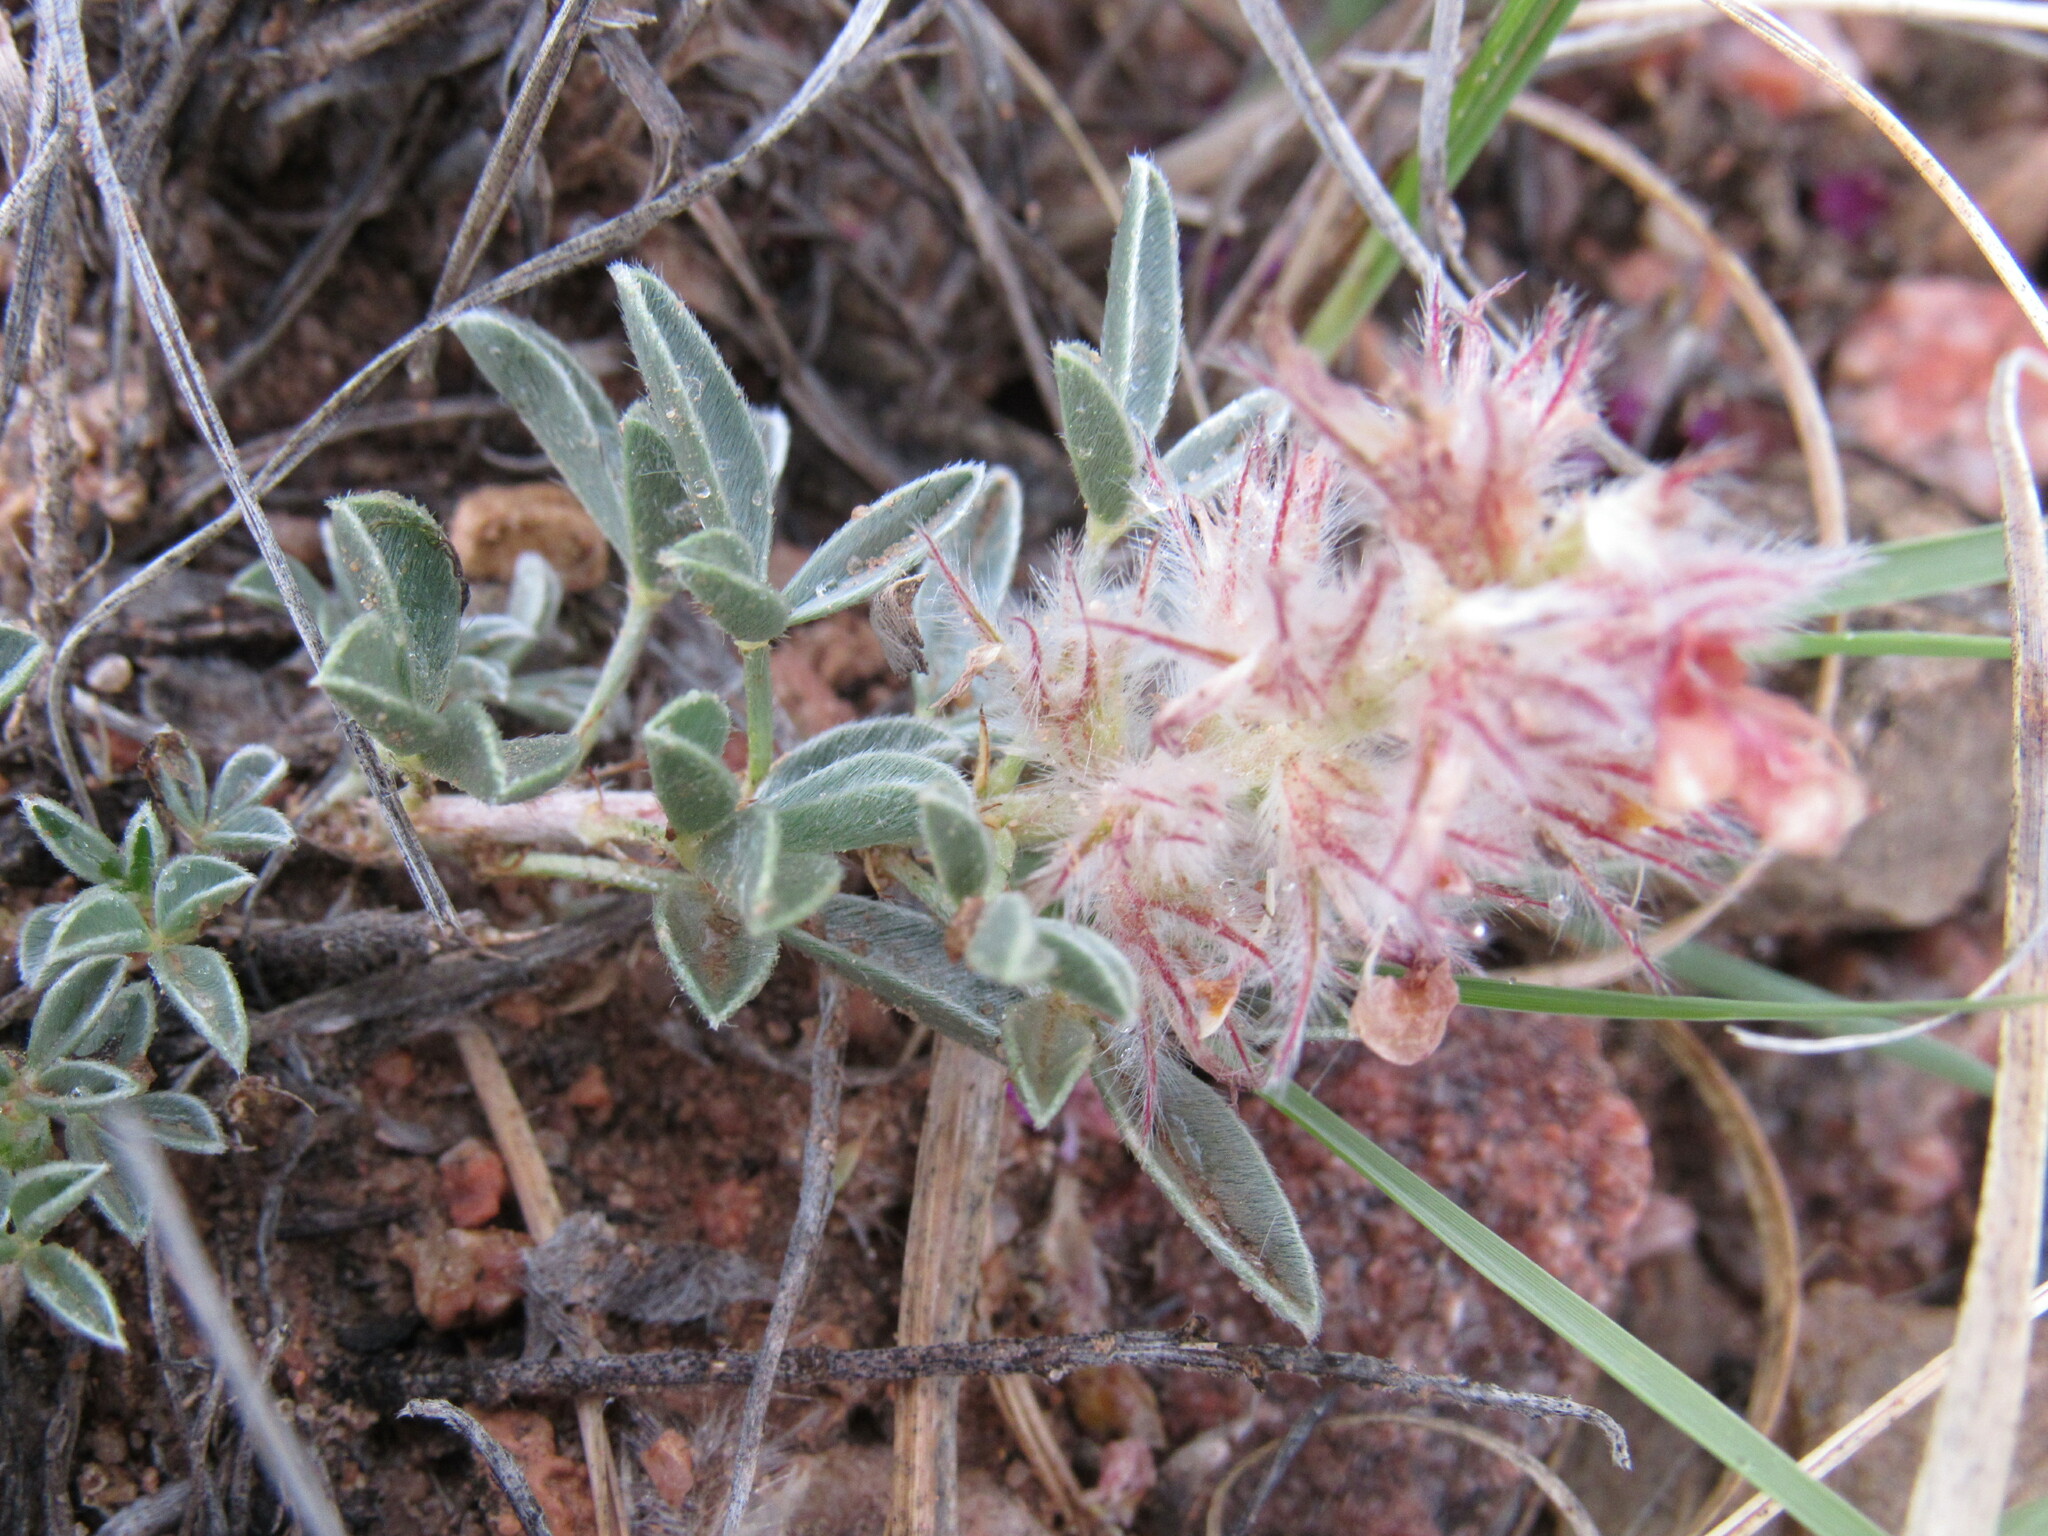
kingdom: Plantae
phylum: Tracheophyta
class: Magnoliopsida
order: Fabales
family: Fabaceae
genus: Dalea
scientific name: Dalea jamesii
